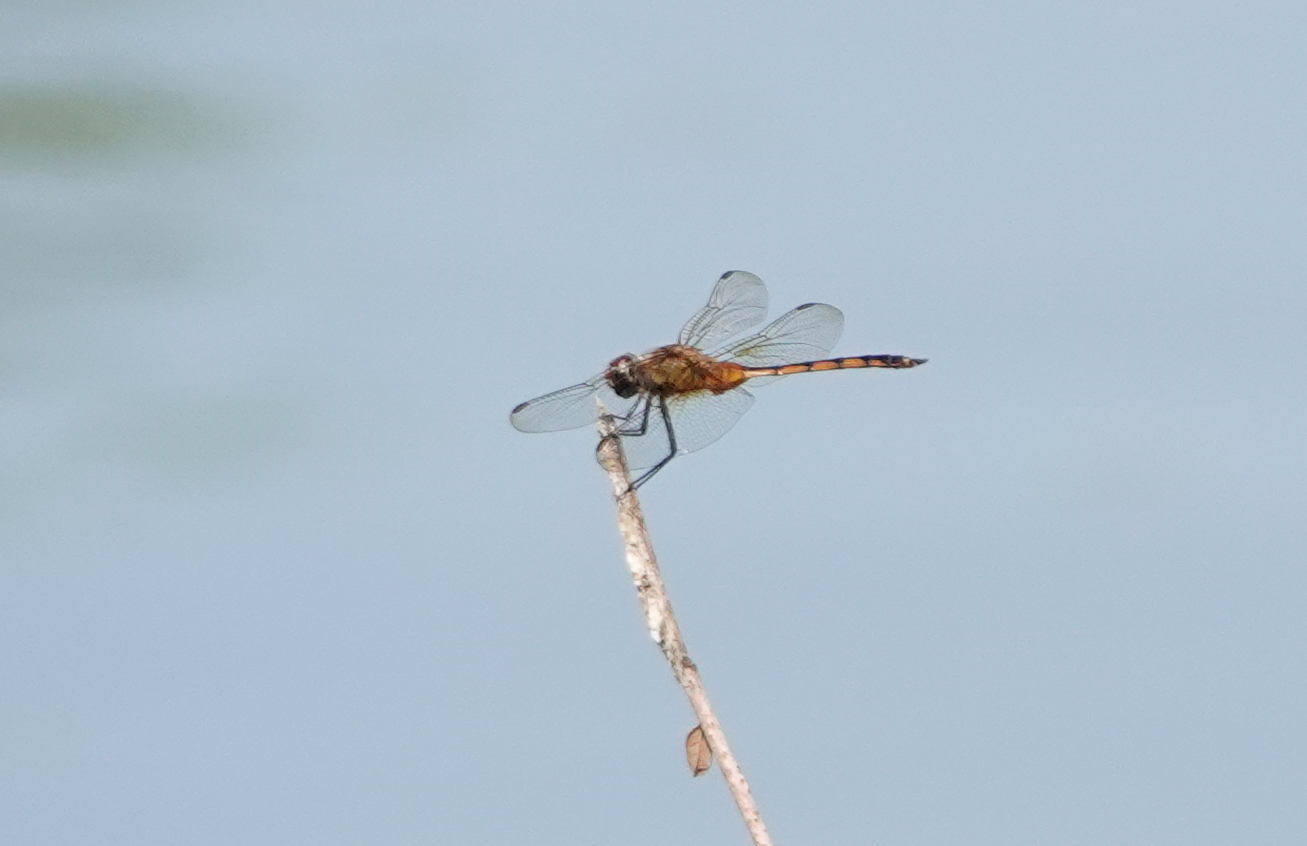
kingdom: Animalia
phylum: Arthropoda
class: Insecta
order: Odonata
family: Libellulidae
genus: Brachymesia
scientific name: Brachymesia herbida
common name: Tawny pennant
